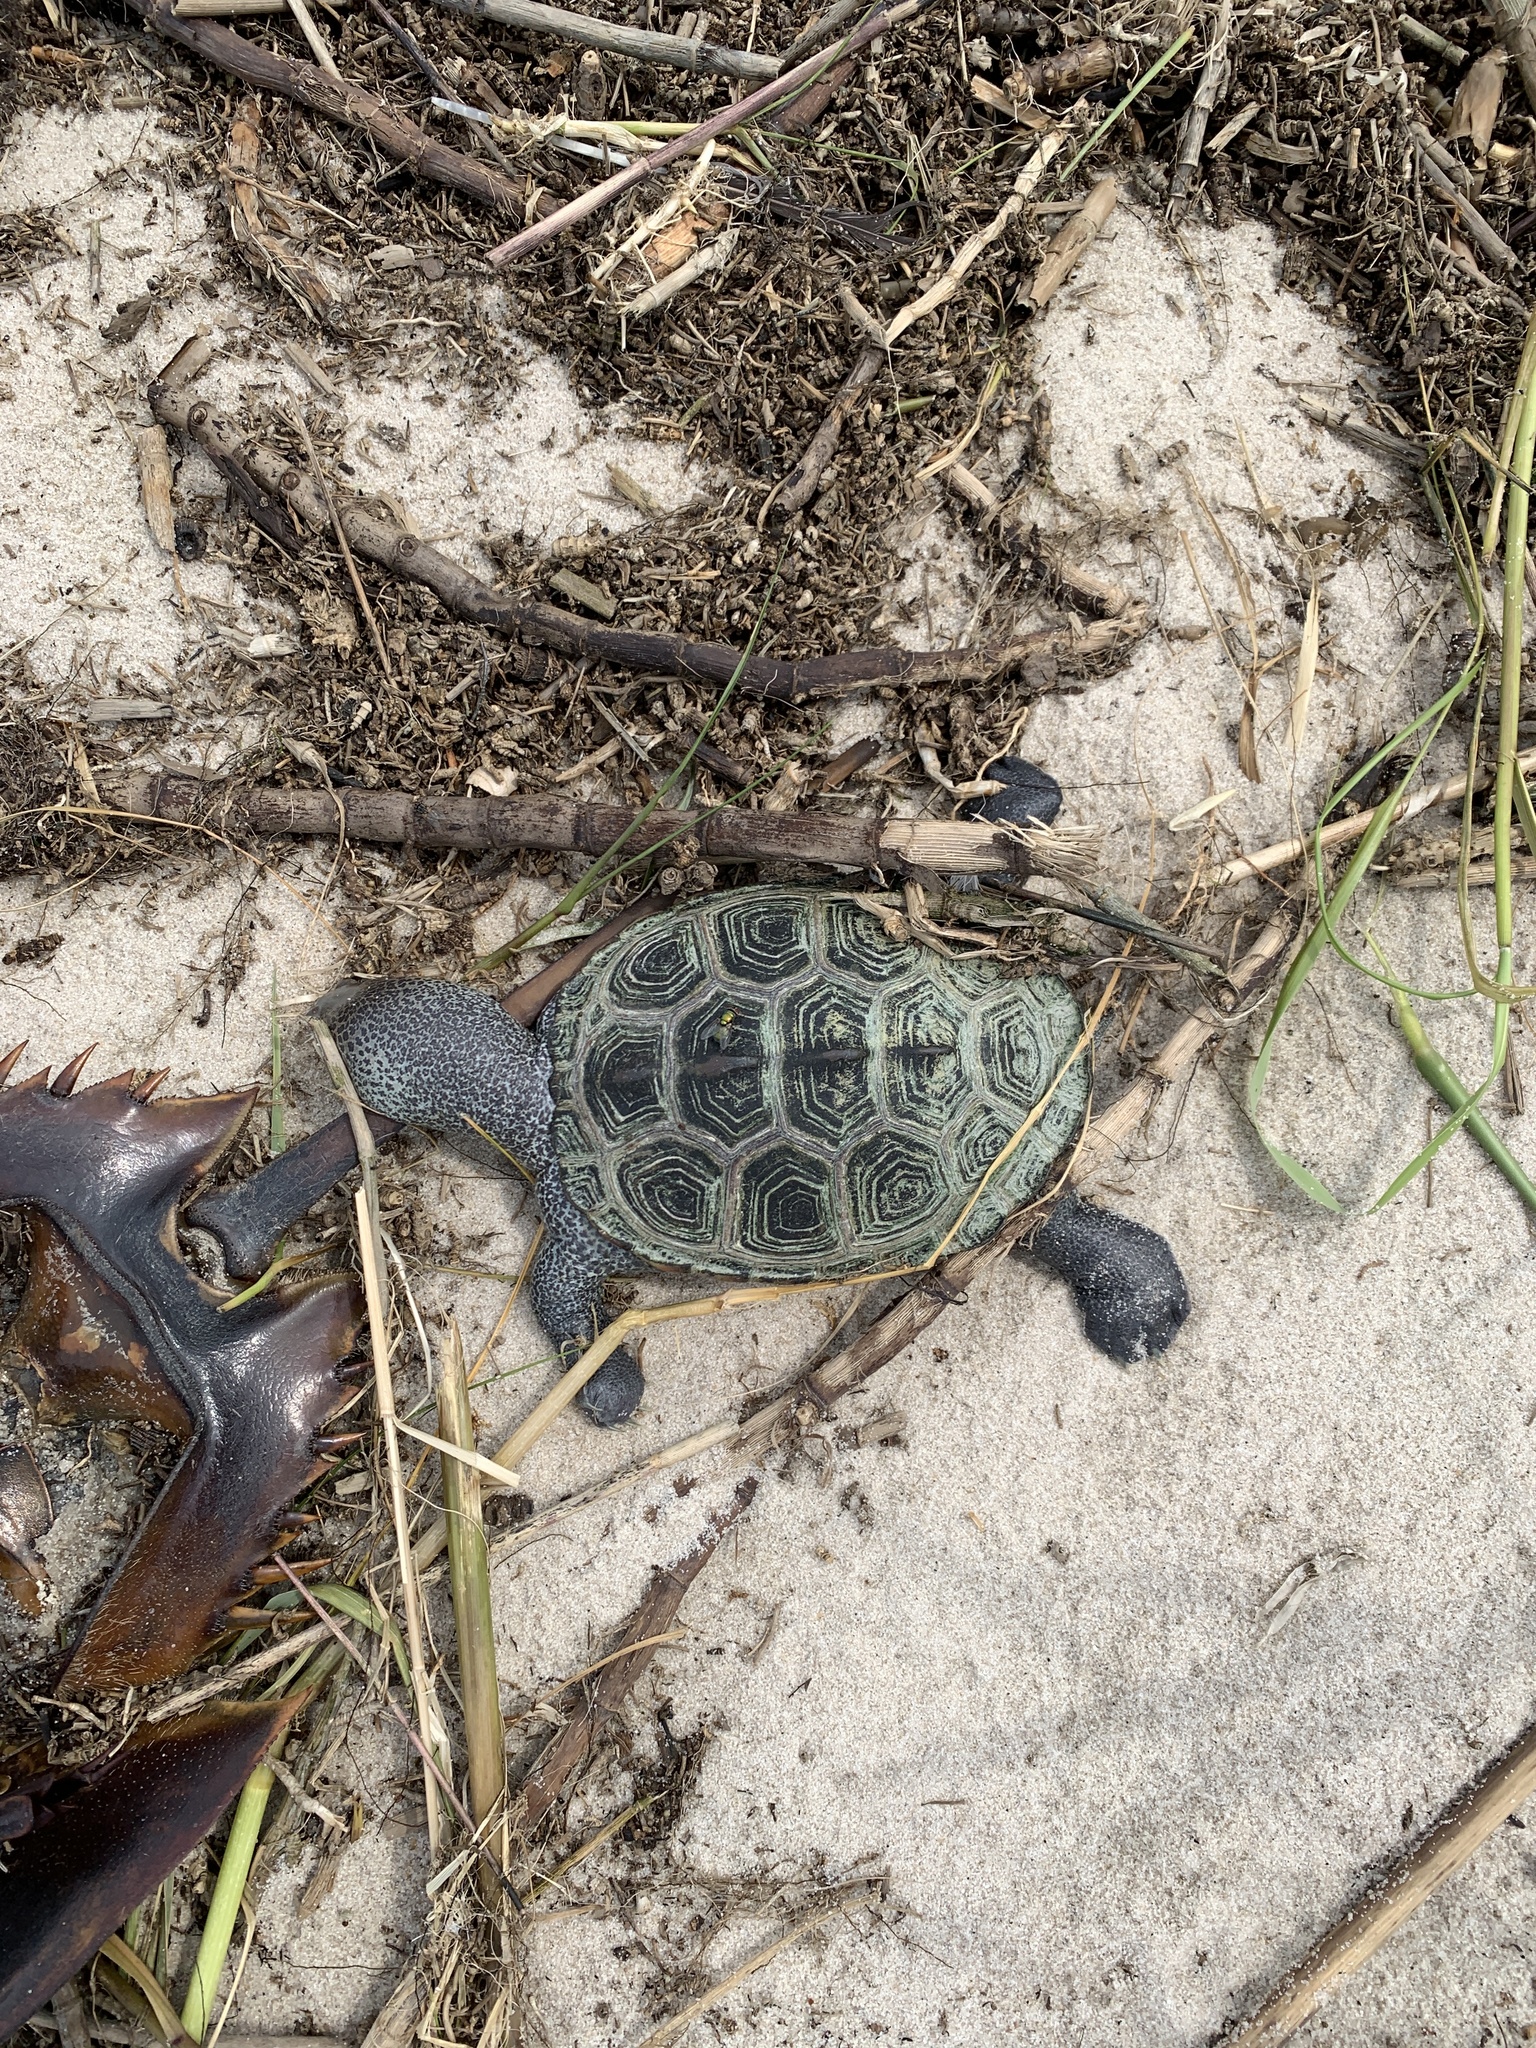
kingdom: Animalia
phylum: Chordata
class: Testudines
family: Emydidae
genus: Malaclemys
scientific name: Malaclemys terrapin
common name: Diamondback terrapin
